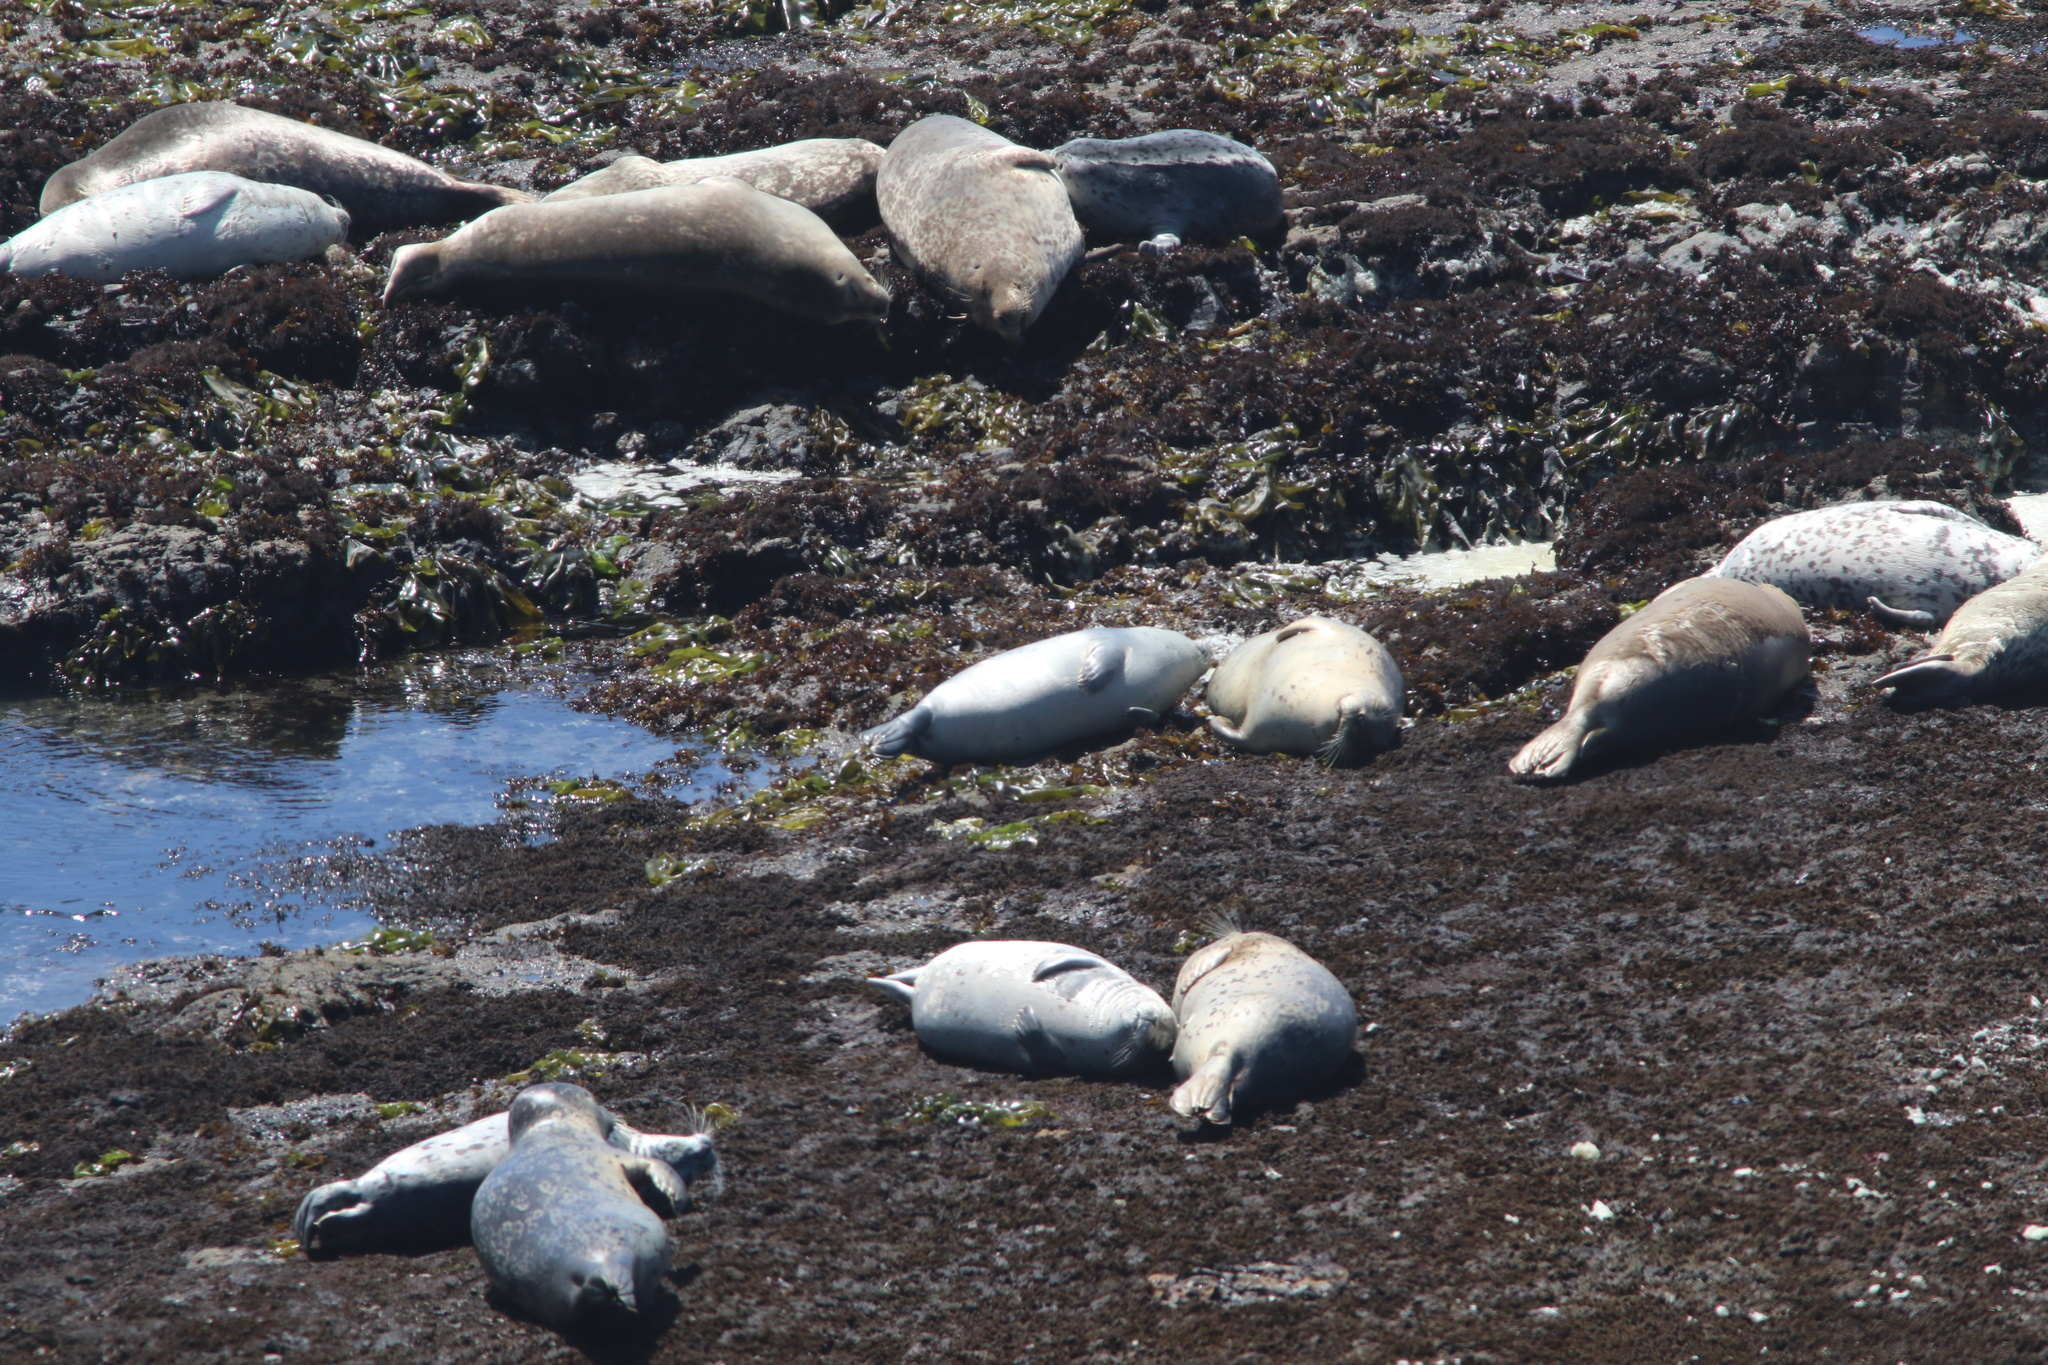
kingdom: Animalia
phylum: Chordata
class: Mammalia
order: Carnivora
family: Phocidae
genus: Phoca
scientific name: Phoca vitulina
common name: Harbor seal
